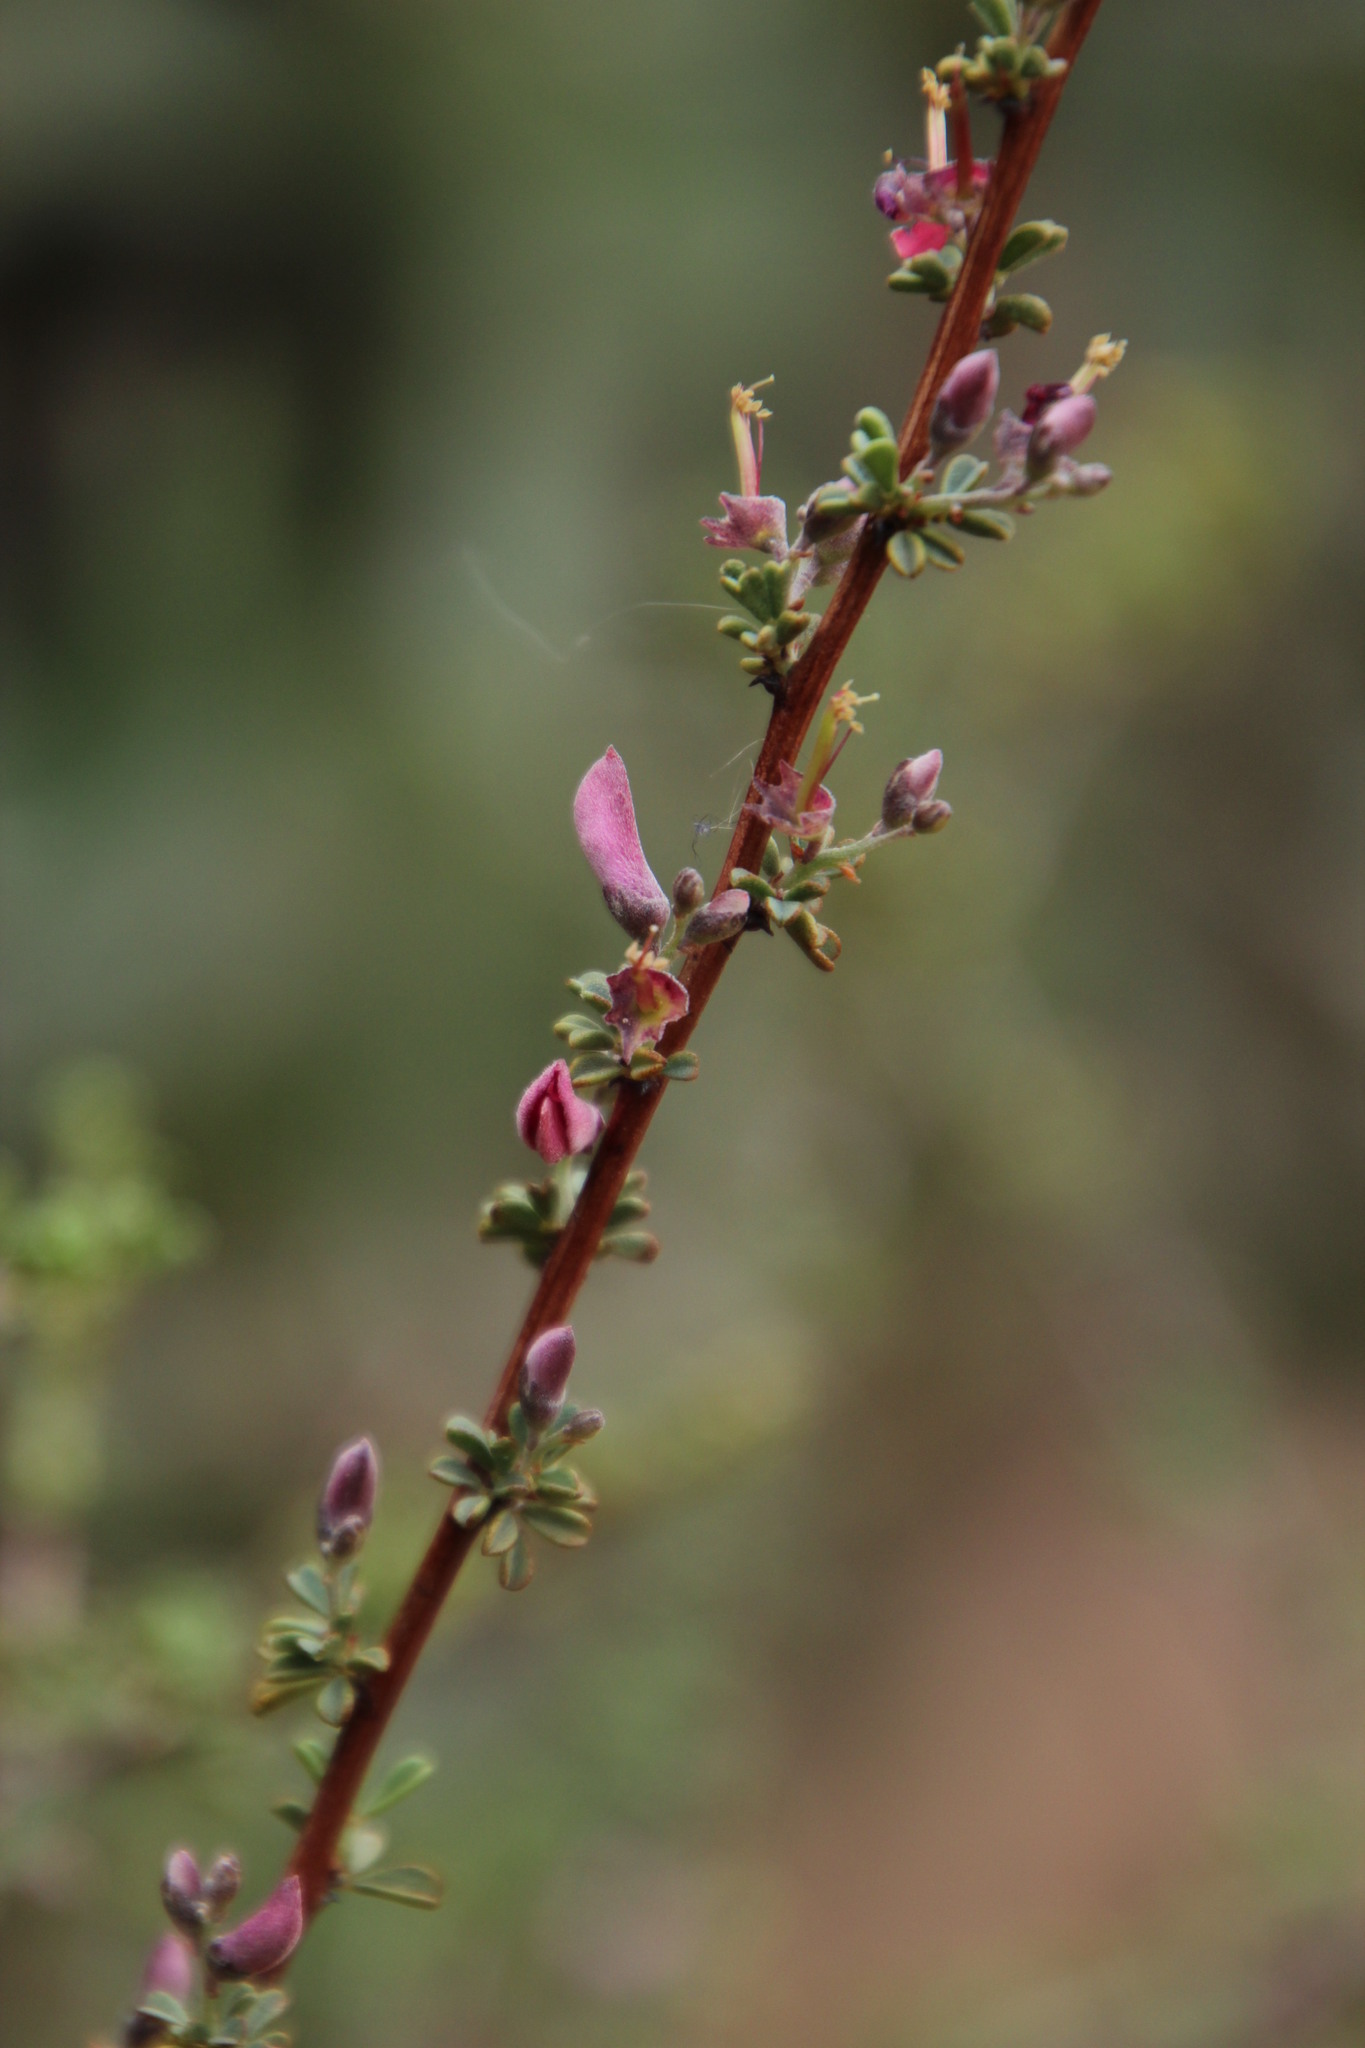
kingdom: Plantae
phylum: Tracheophyta
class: Magnoliopsida
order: Fabales
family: Fabaceae
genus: Indigofera
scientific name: Indigofera spinescens
